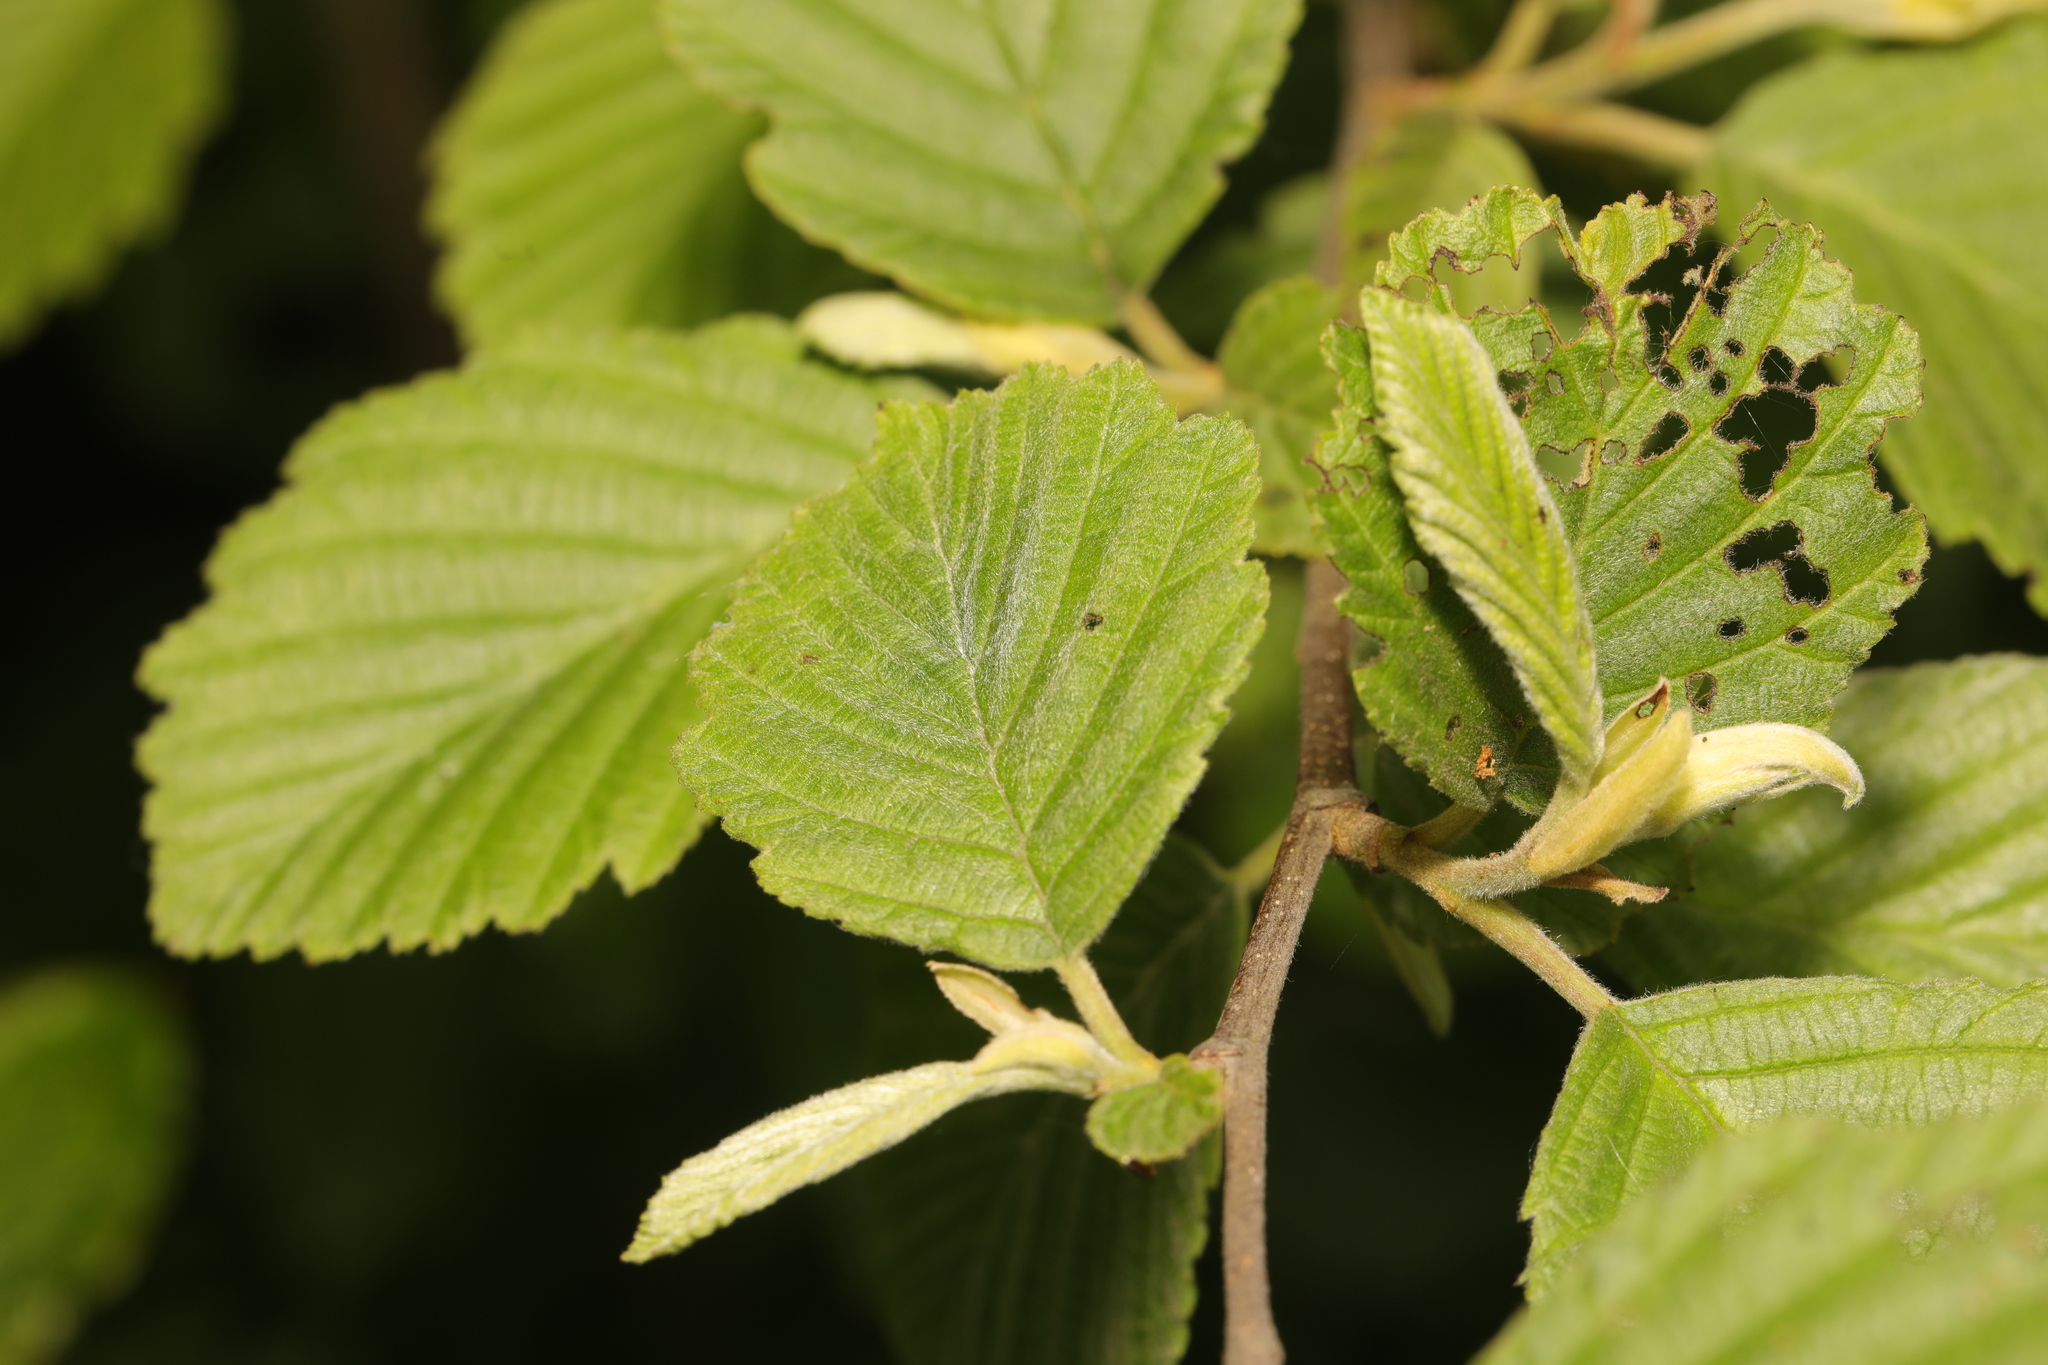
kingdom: Plantae
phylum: Tracheophyta
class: Magnoliopsida
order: Fagales
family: Betulaceae
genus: Alnus
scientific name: Alnus incana
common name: Grey alder
